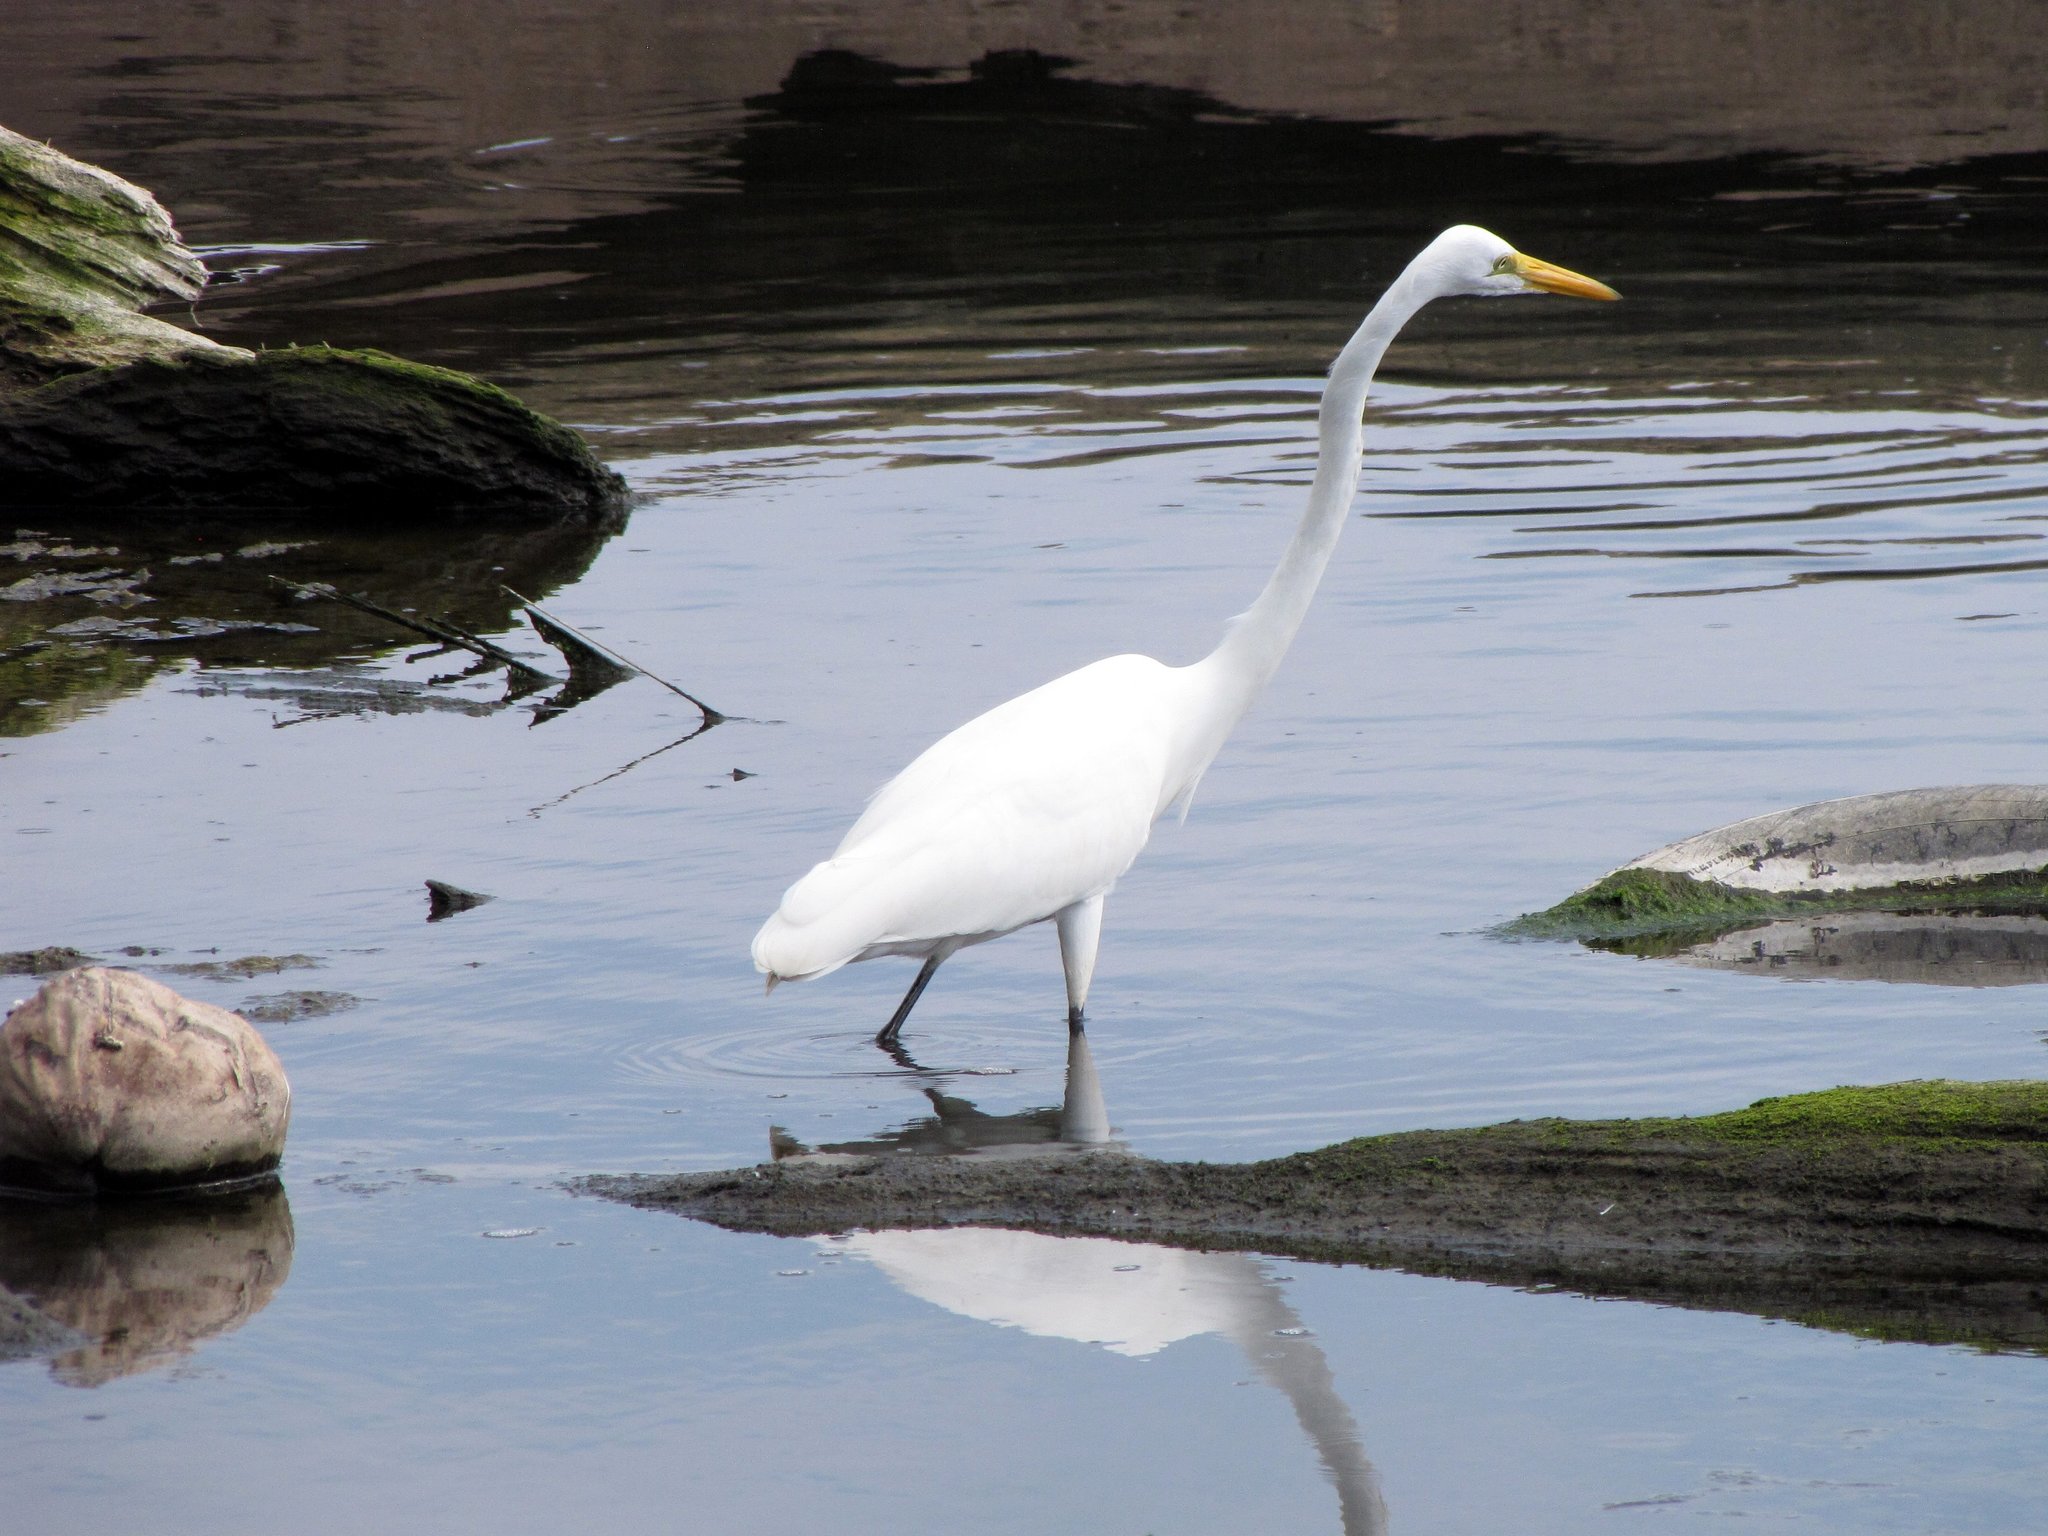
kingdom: Animalia
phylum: Chordata
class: Aves
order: Pelecaniformes
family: Ardeidae
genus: Ardea
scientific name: Ardea alba
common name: Great egret
